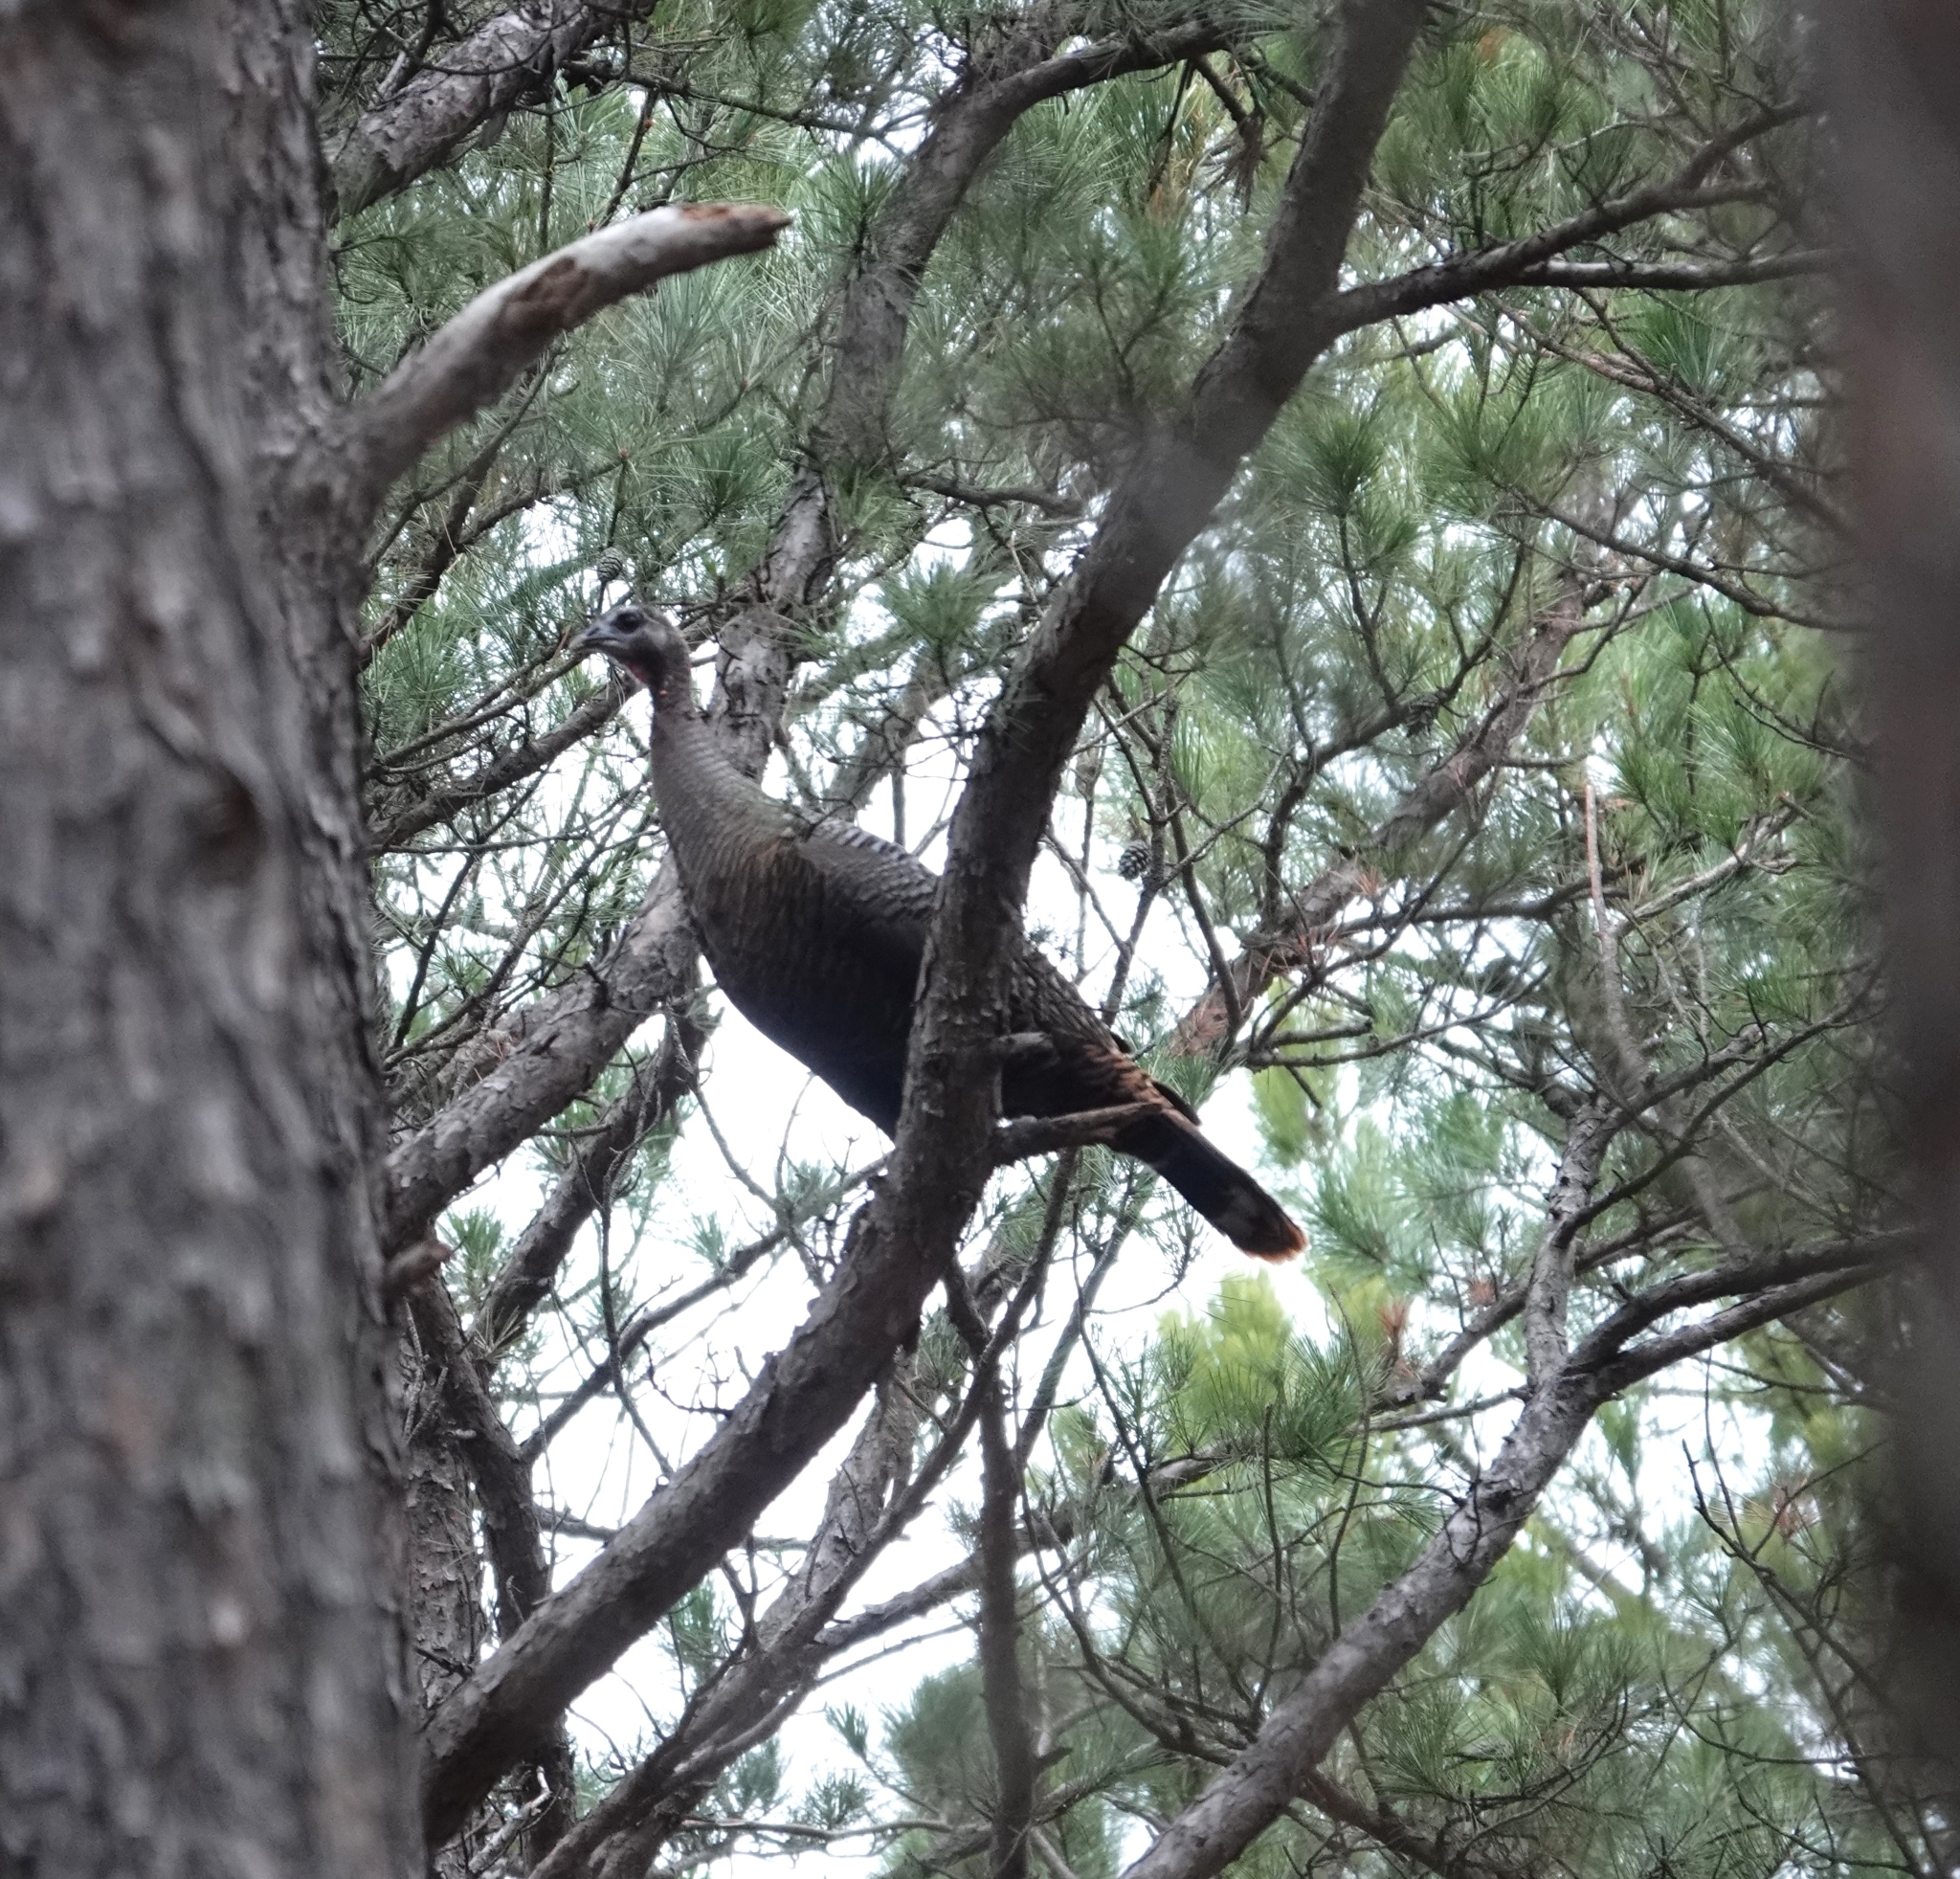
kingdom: Animalia
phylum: Chordata
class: Aves
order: Galliformes
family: Phasianidae
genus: Meleagris
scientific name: Meleagris gallopavo
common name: Wild turkey
